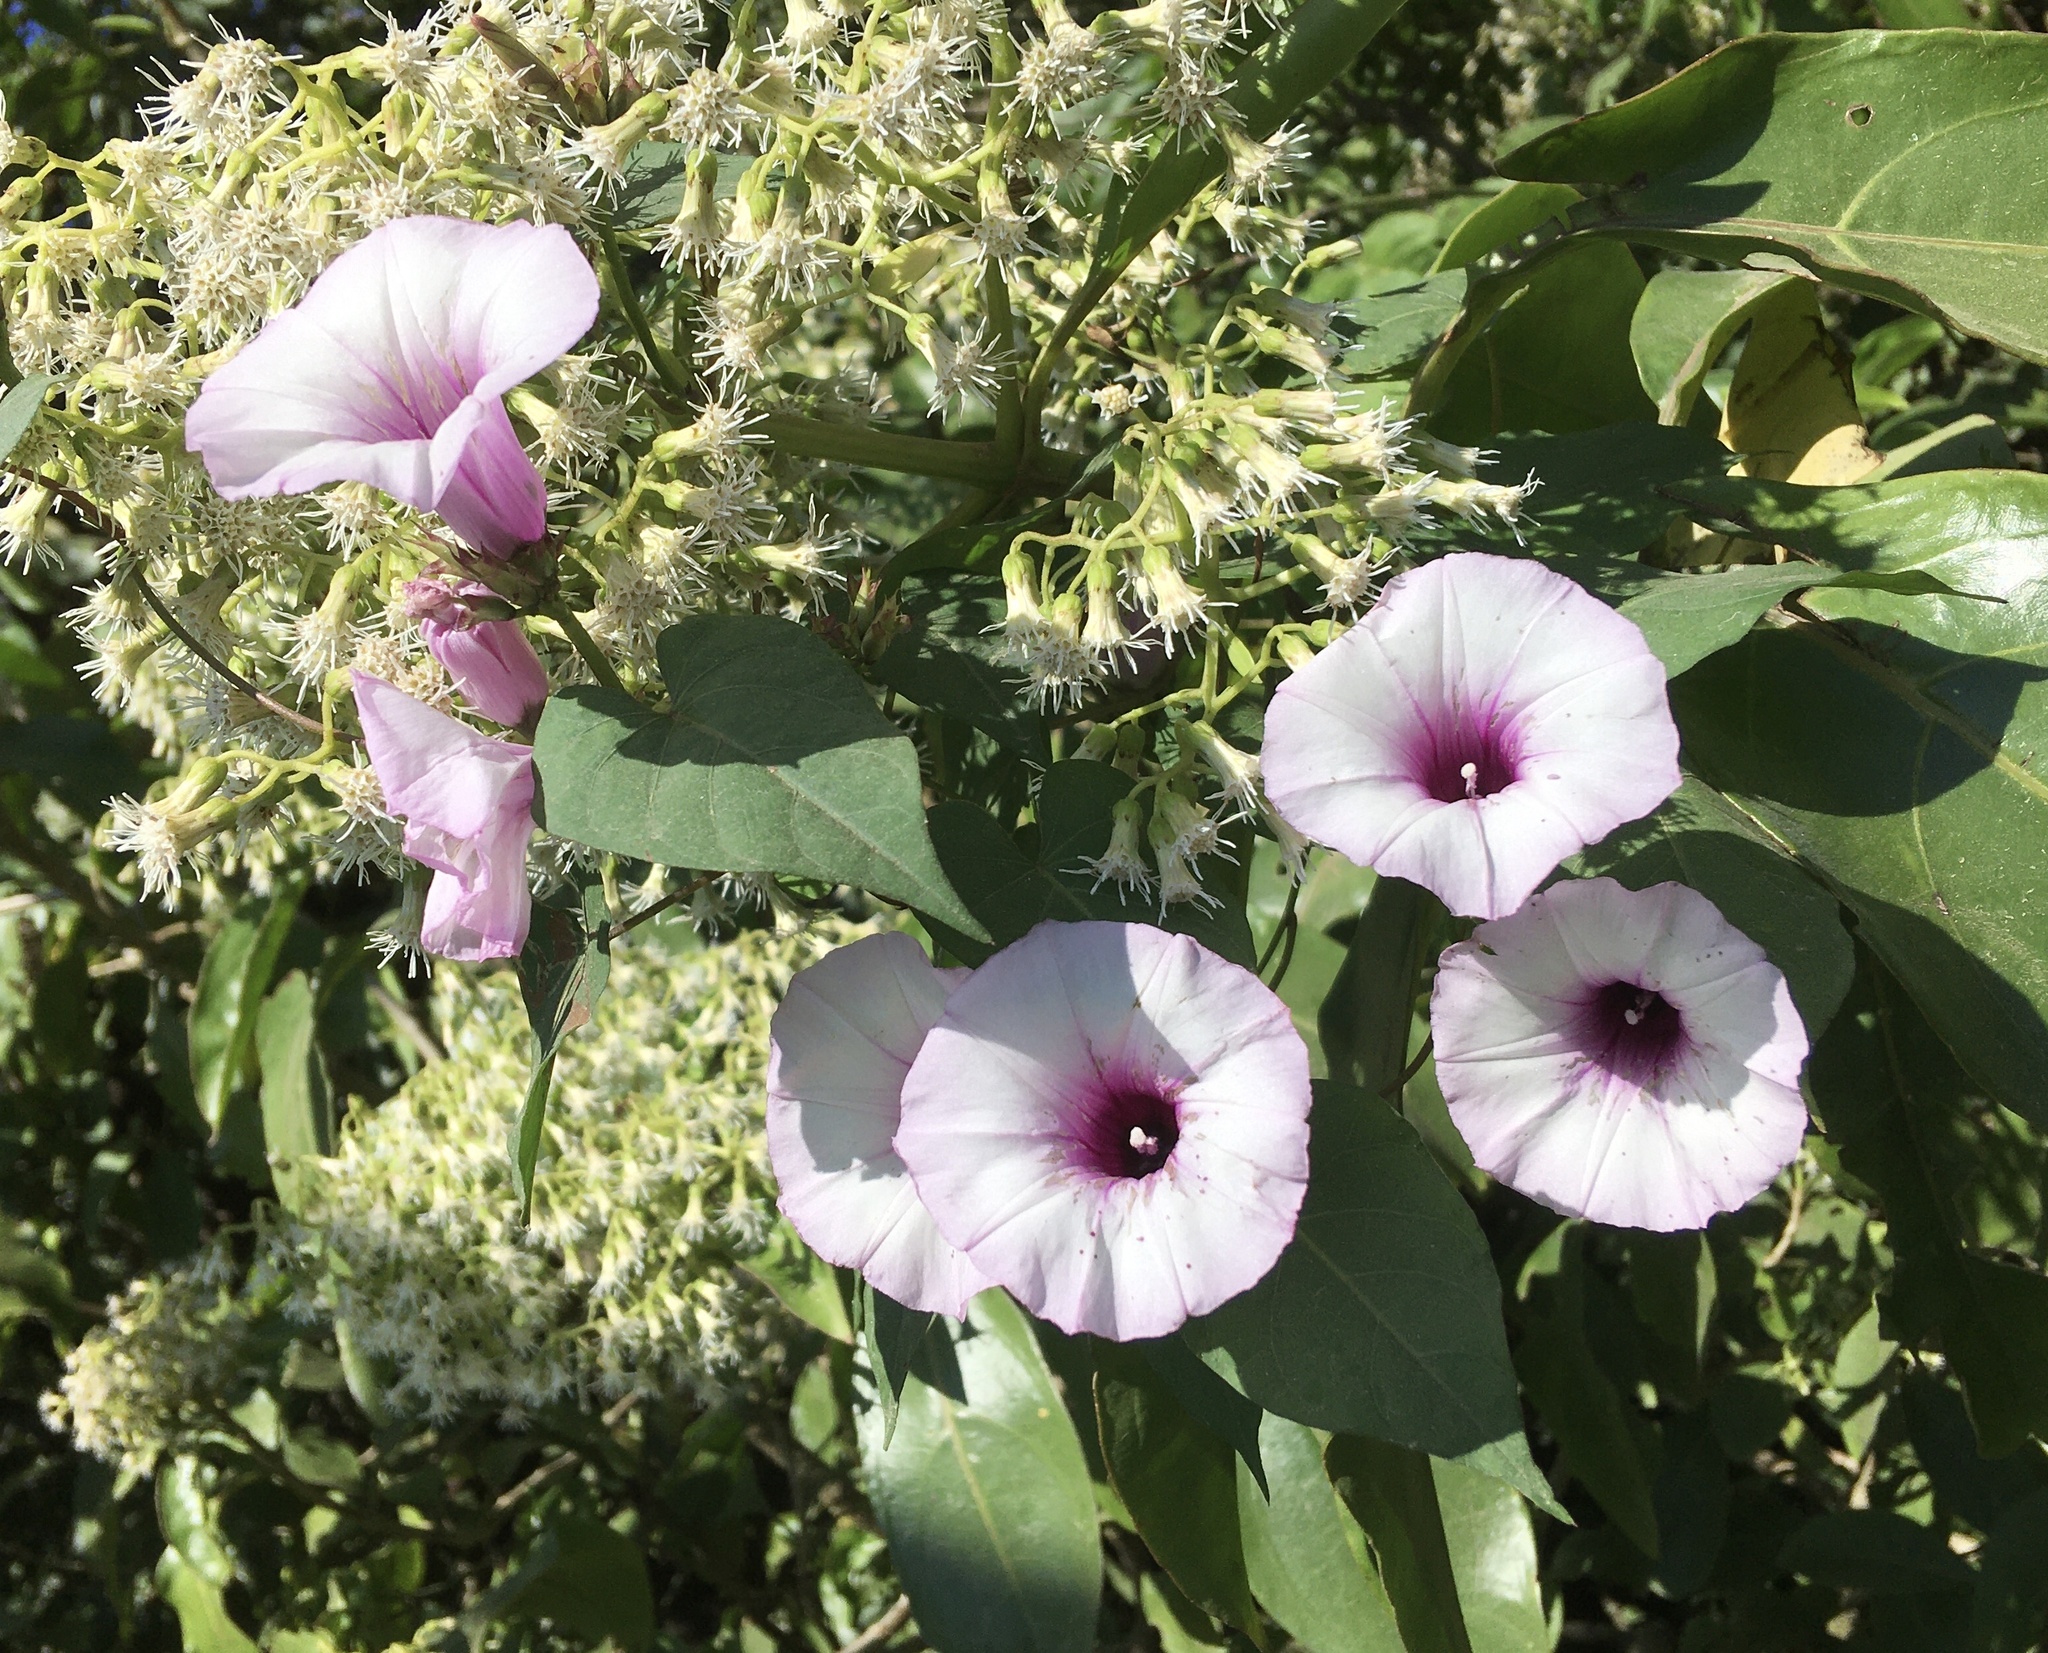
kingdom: Plantae
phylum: Tracheophyta
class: Magnoliopsida
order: Solanales
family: Convolvulaceae
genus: Ipomoea
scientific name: Ipomoea batatas
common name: Sweet-potato
